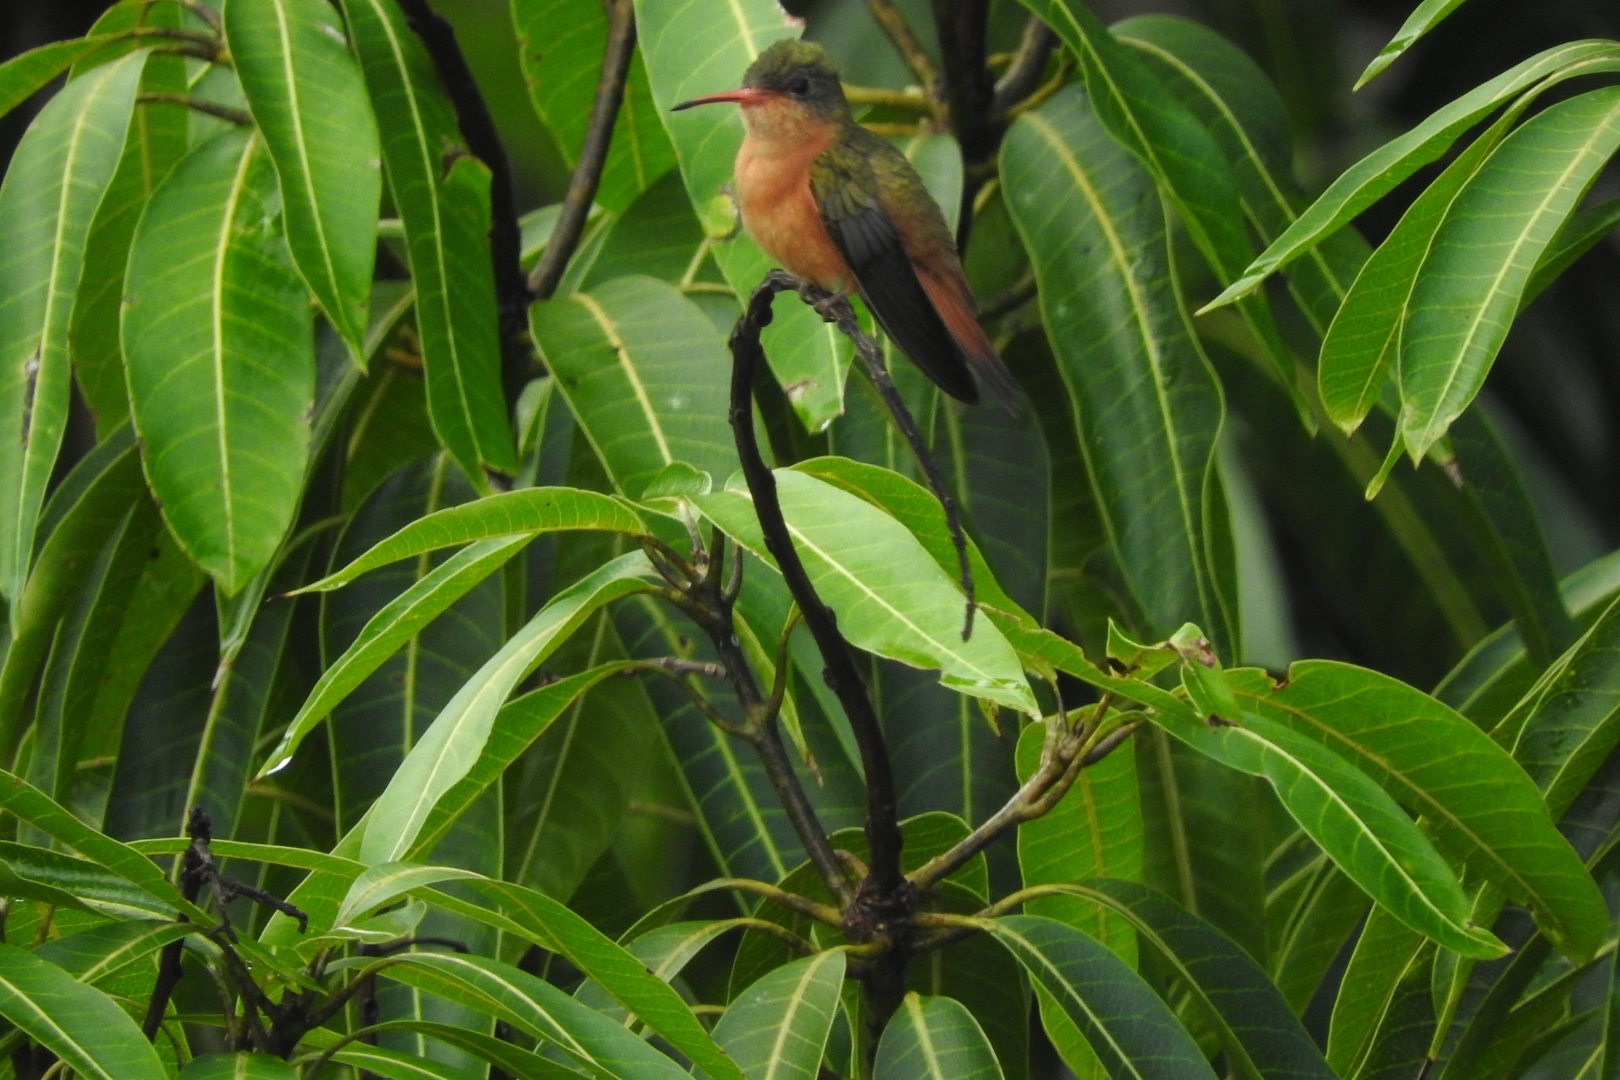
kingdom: Animalia
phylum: Chordata
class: Aves
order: Apodiformes
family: Trochilidae
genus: Amazilia
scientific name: Amazilia rutila
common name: Cinnamon hummingbird
